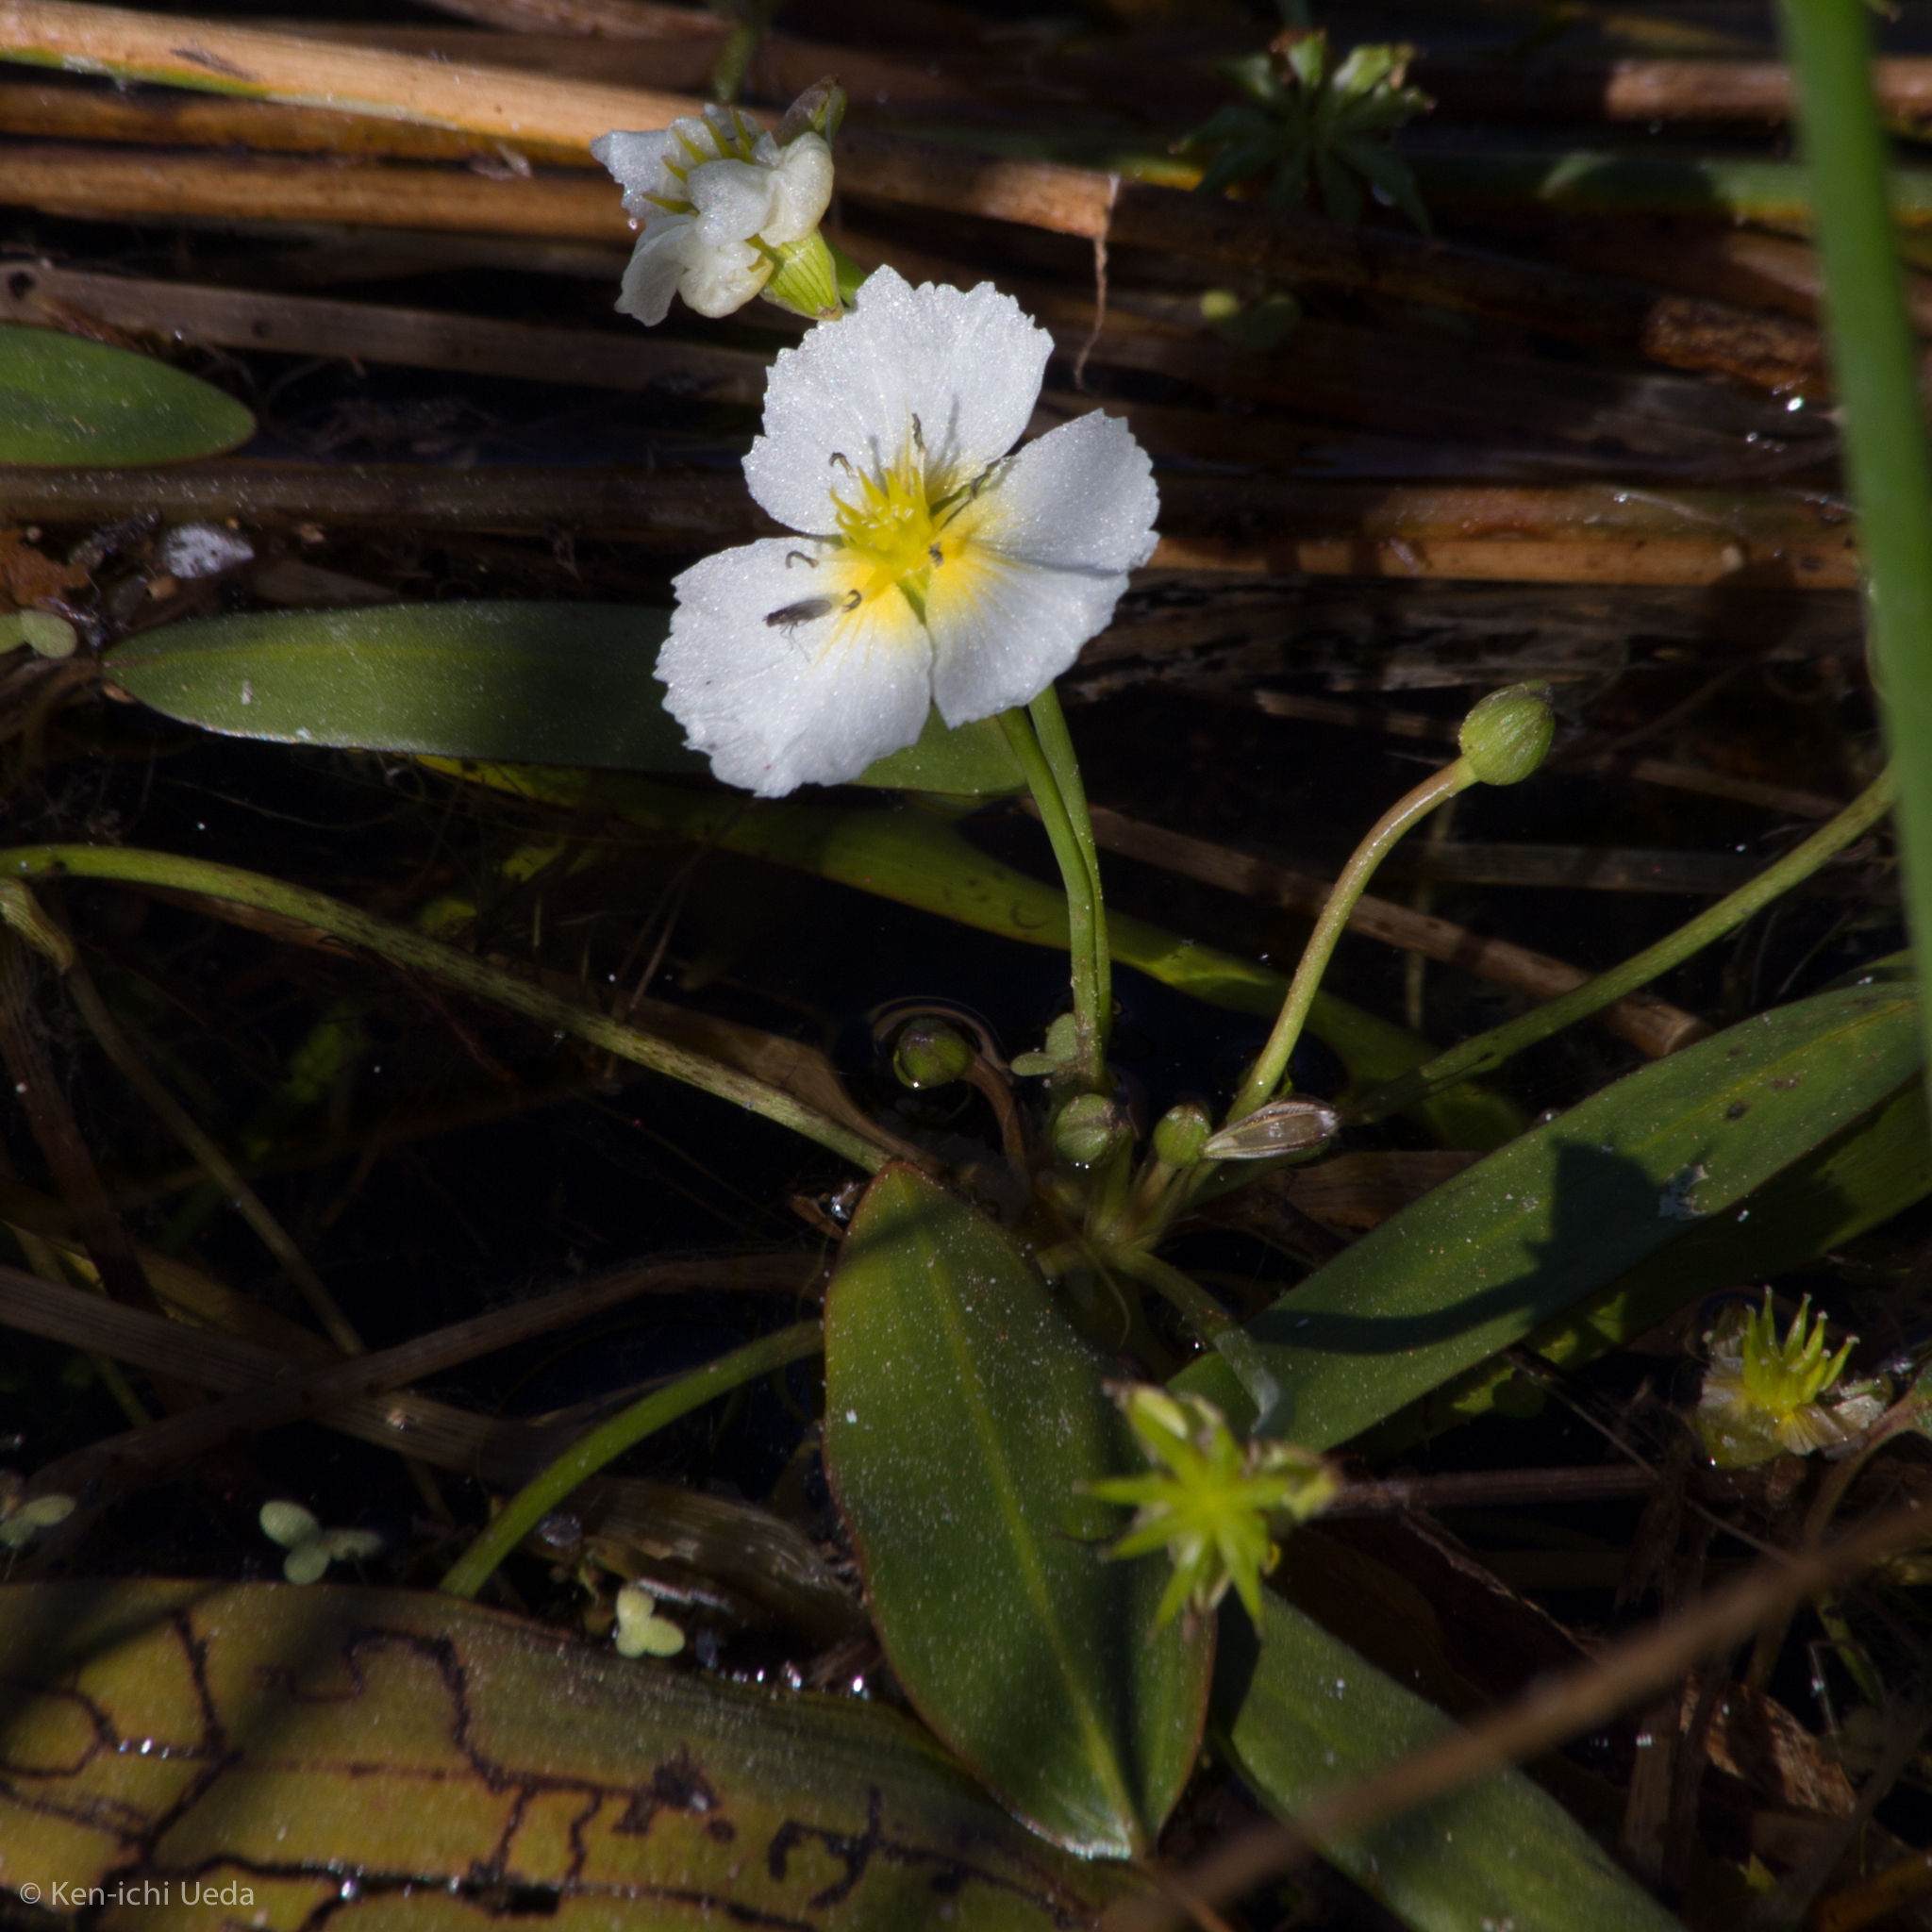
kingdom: Plantae
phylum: Tracheophyta
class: Liliopsida
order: Alismatales
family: Alismataceae
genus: Damasonium
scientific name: Damasonium californicum
